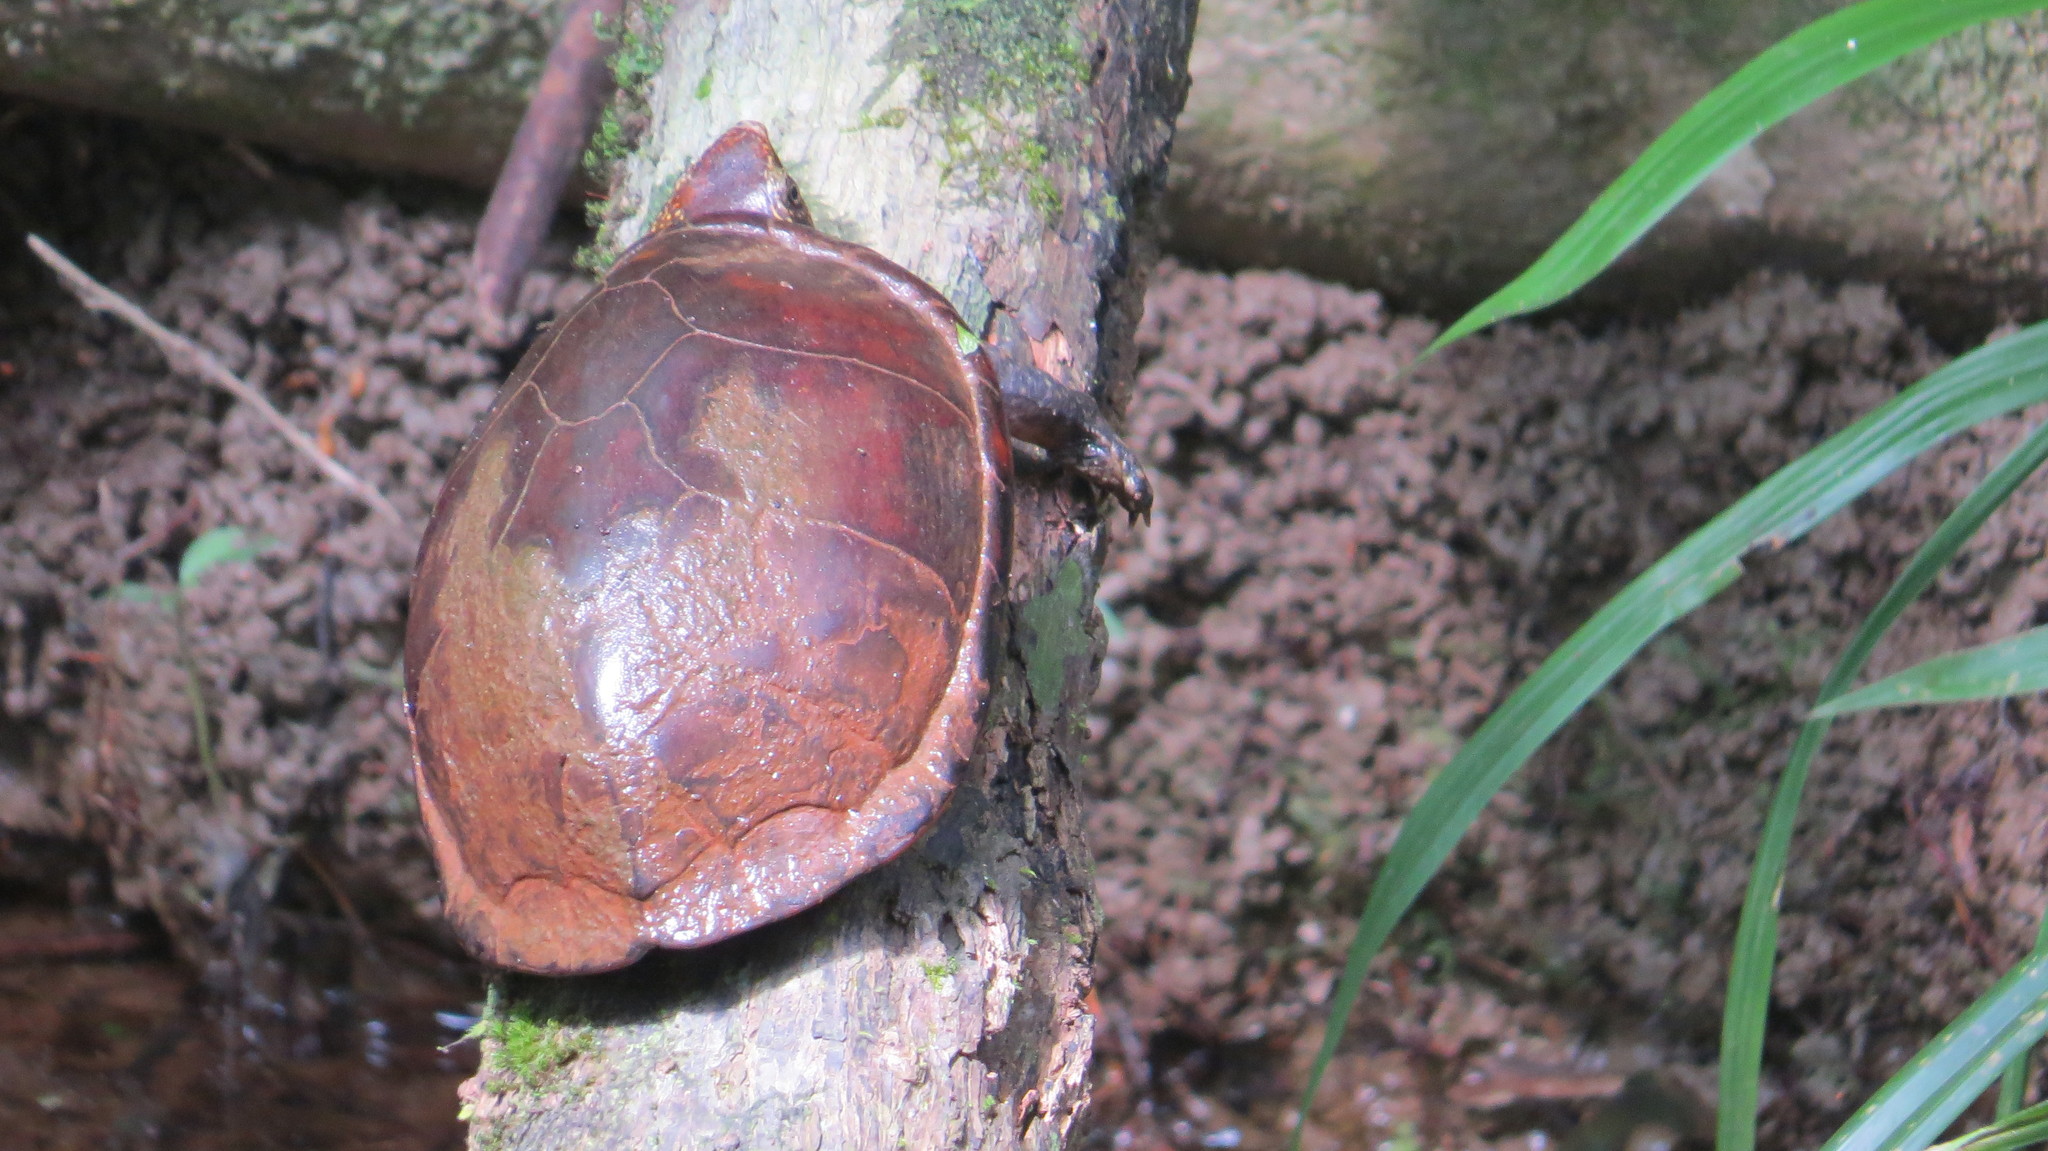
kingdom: Animalia
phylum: Chordata
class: Testudines
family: Kinosternidae
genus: Kinosternon
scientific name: Kinosternon leucostomum
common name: White-lipped mud turtle
